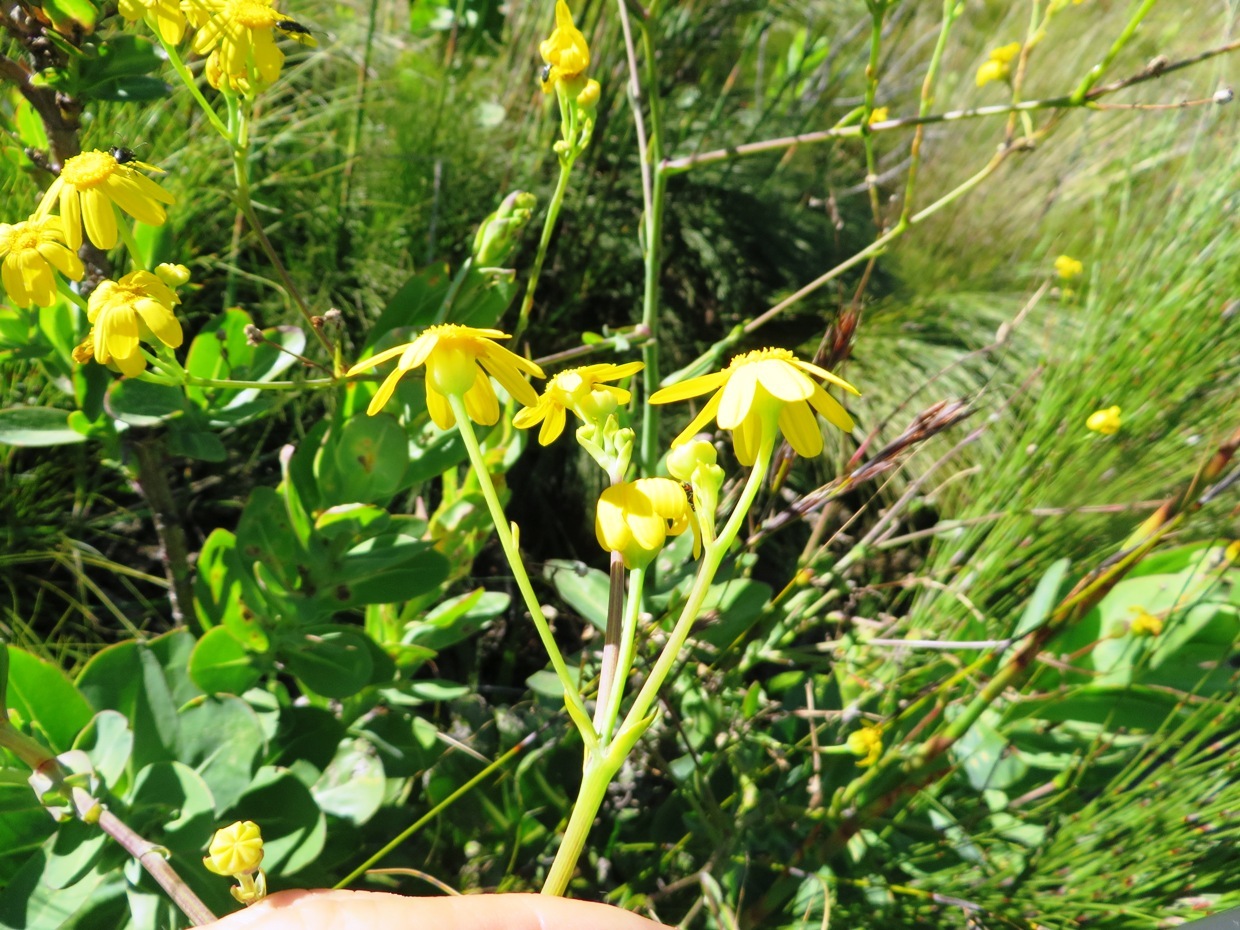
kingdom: Plantae
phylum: Tracheophyta
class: Magnoliopsida
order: Asterales
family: Asteraceae
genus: Othonna
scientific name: Othonna quinquedentata
